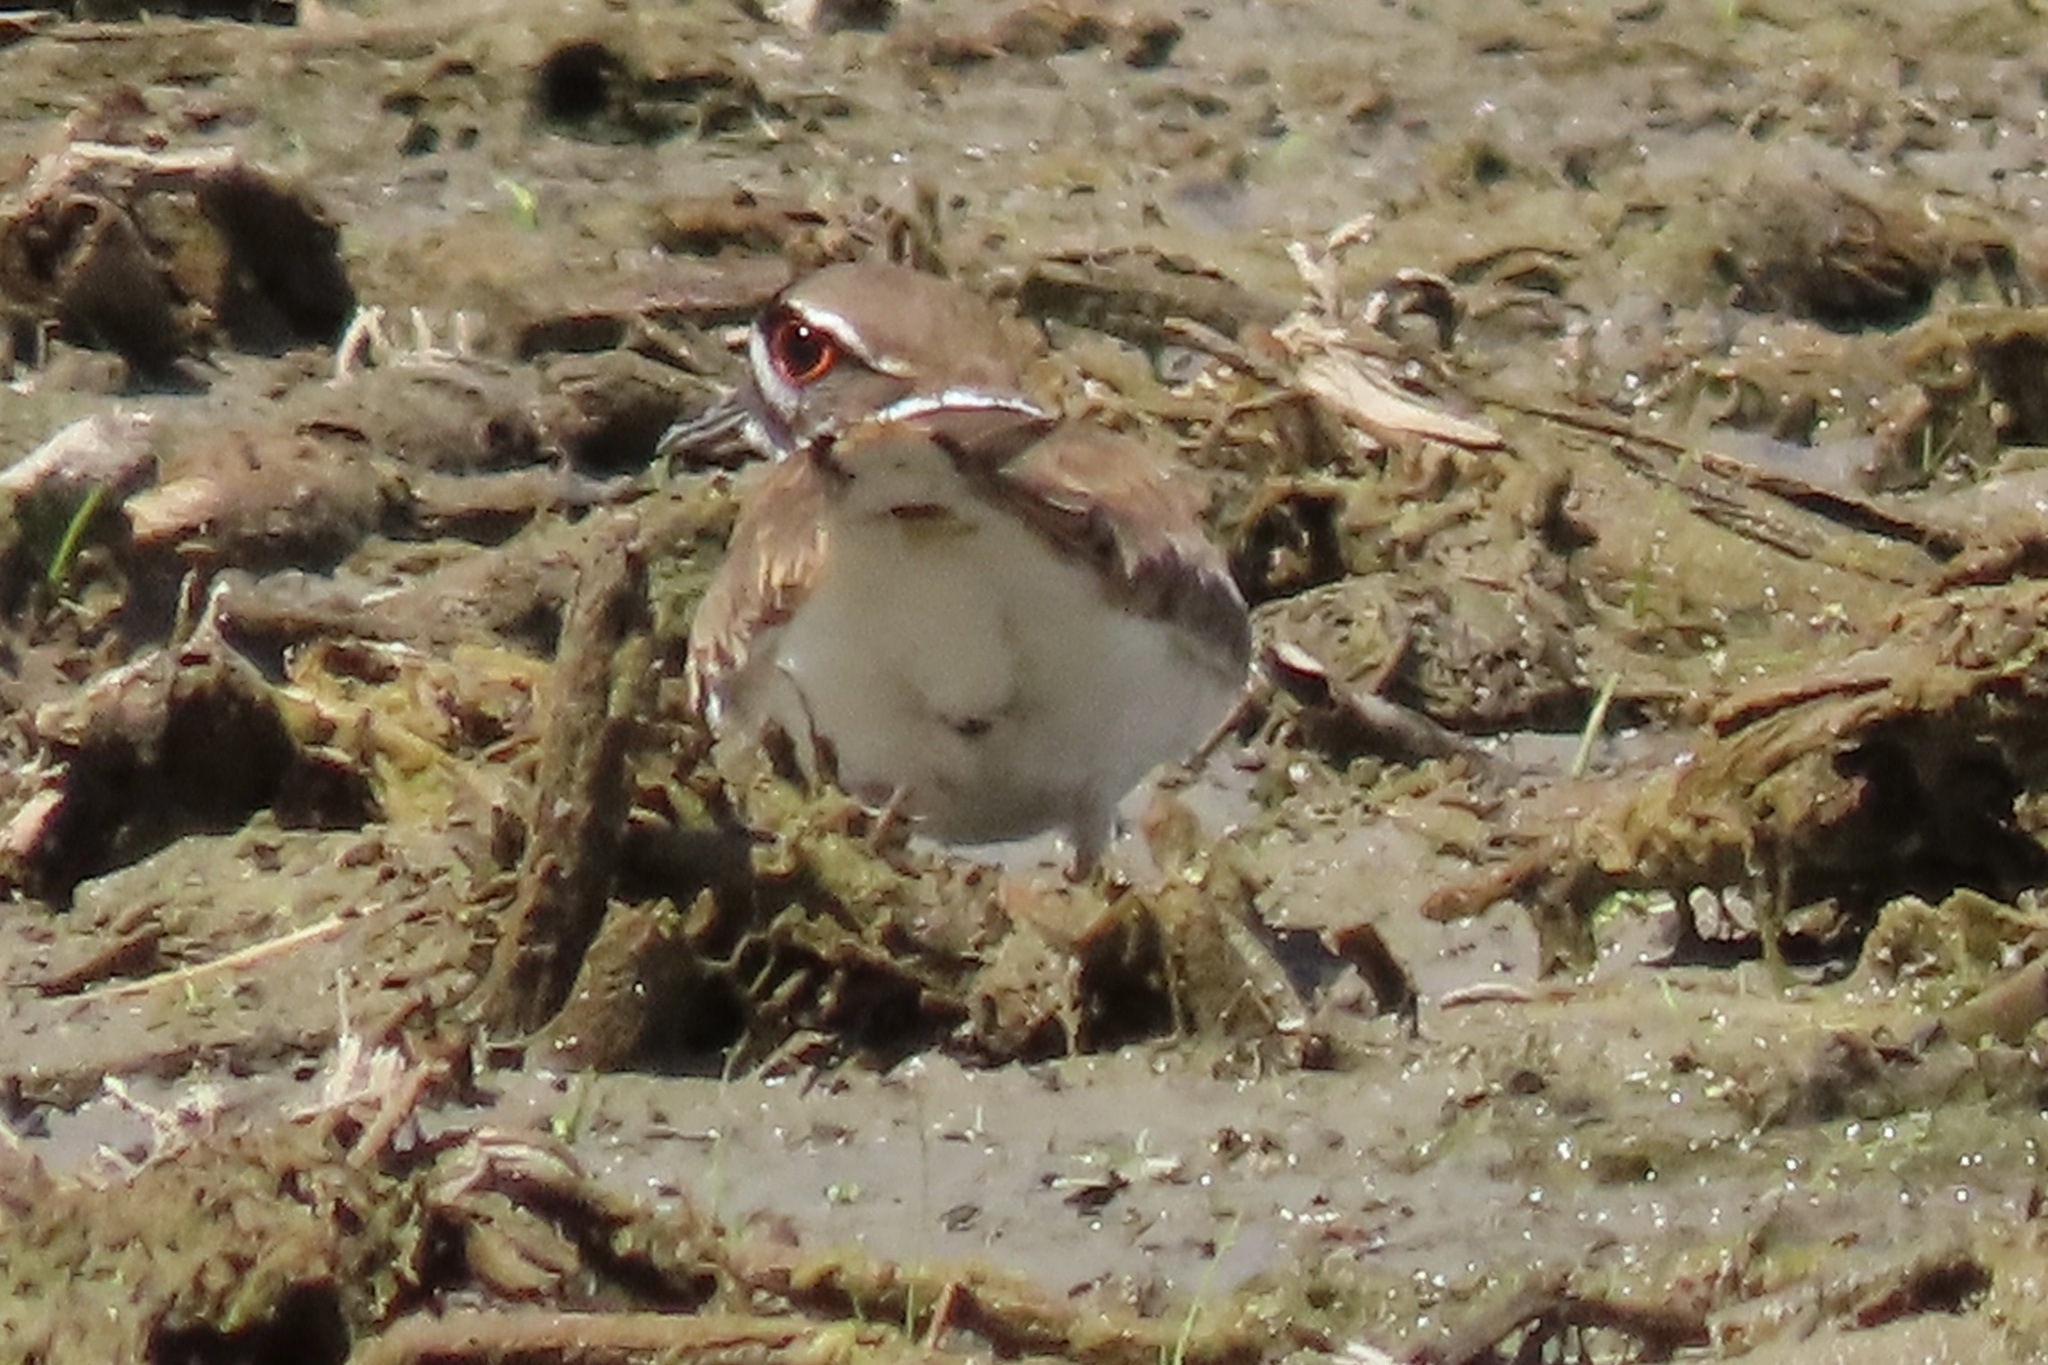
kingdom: Animalia
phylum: Chordata
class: Aves
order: Charadriiformes
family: Charadriidae
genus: Charadrius
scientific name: Charadrius vociferus
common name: Killdeer
